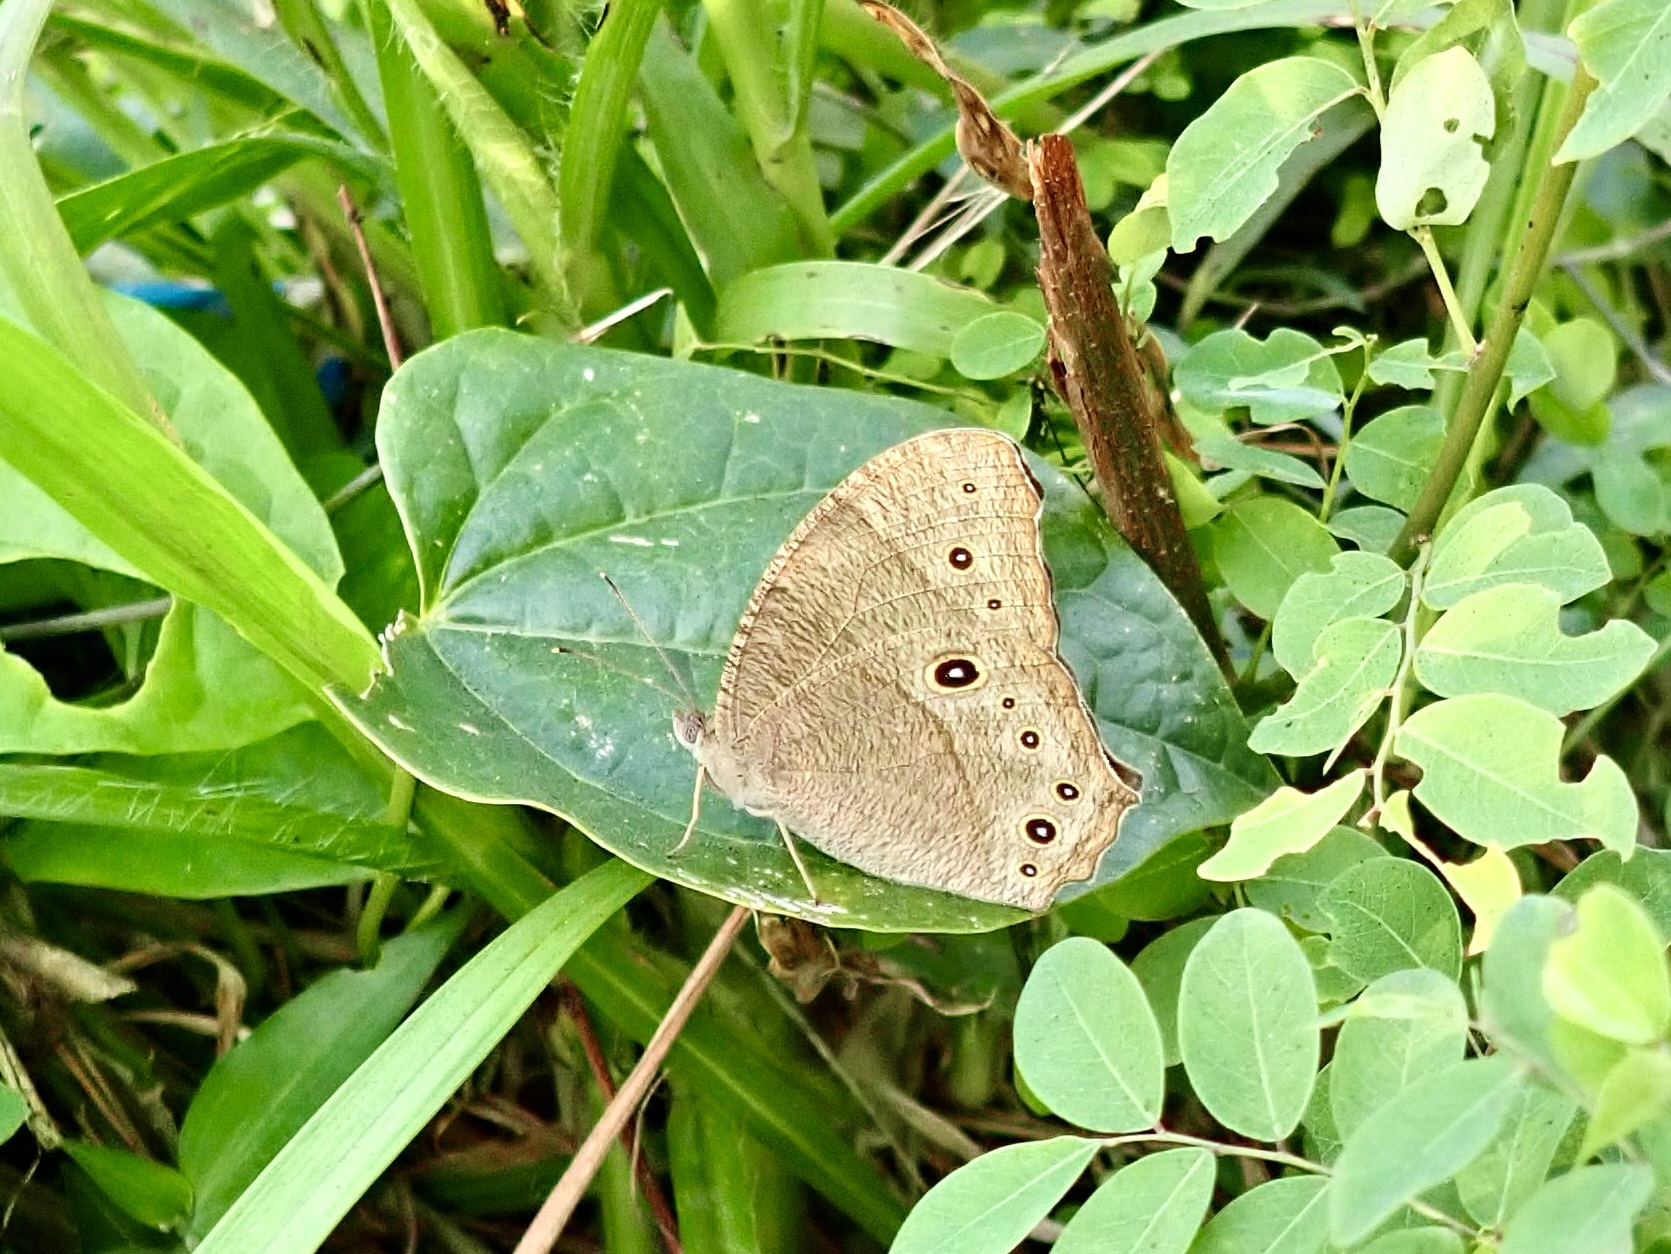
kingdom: Animalia
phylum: Arthropoda
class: Insecta
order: Lepidoptera
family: Nymphalidae
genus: Melanitis
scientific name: Melanitis leda
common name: Twilight brown
